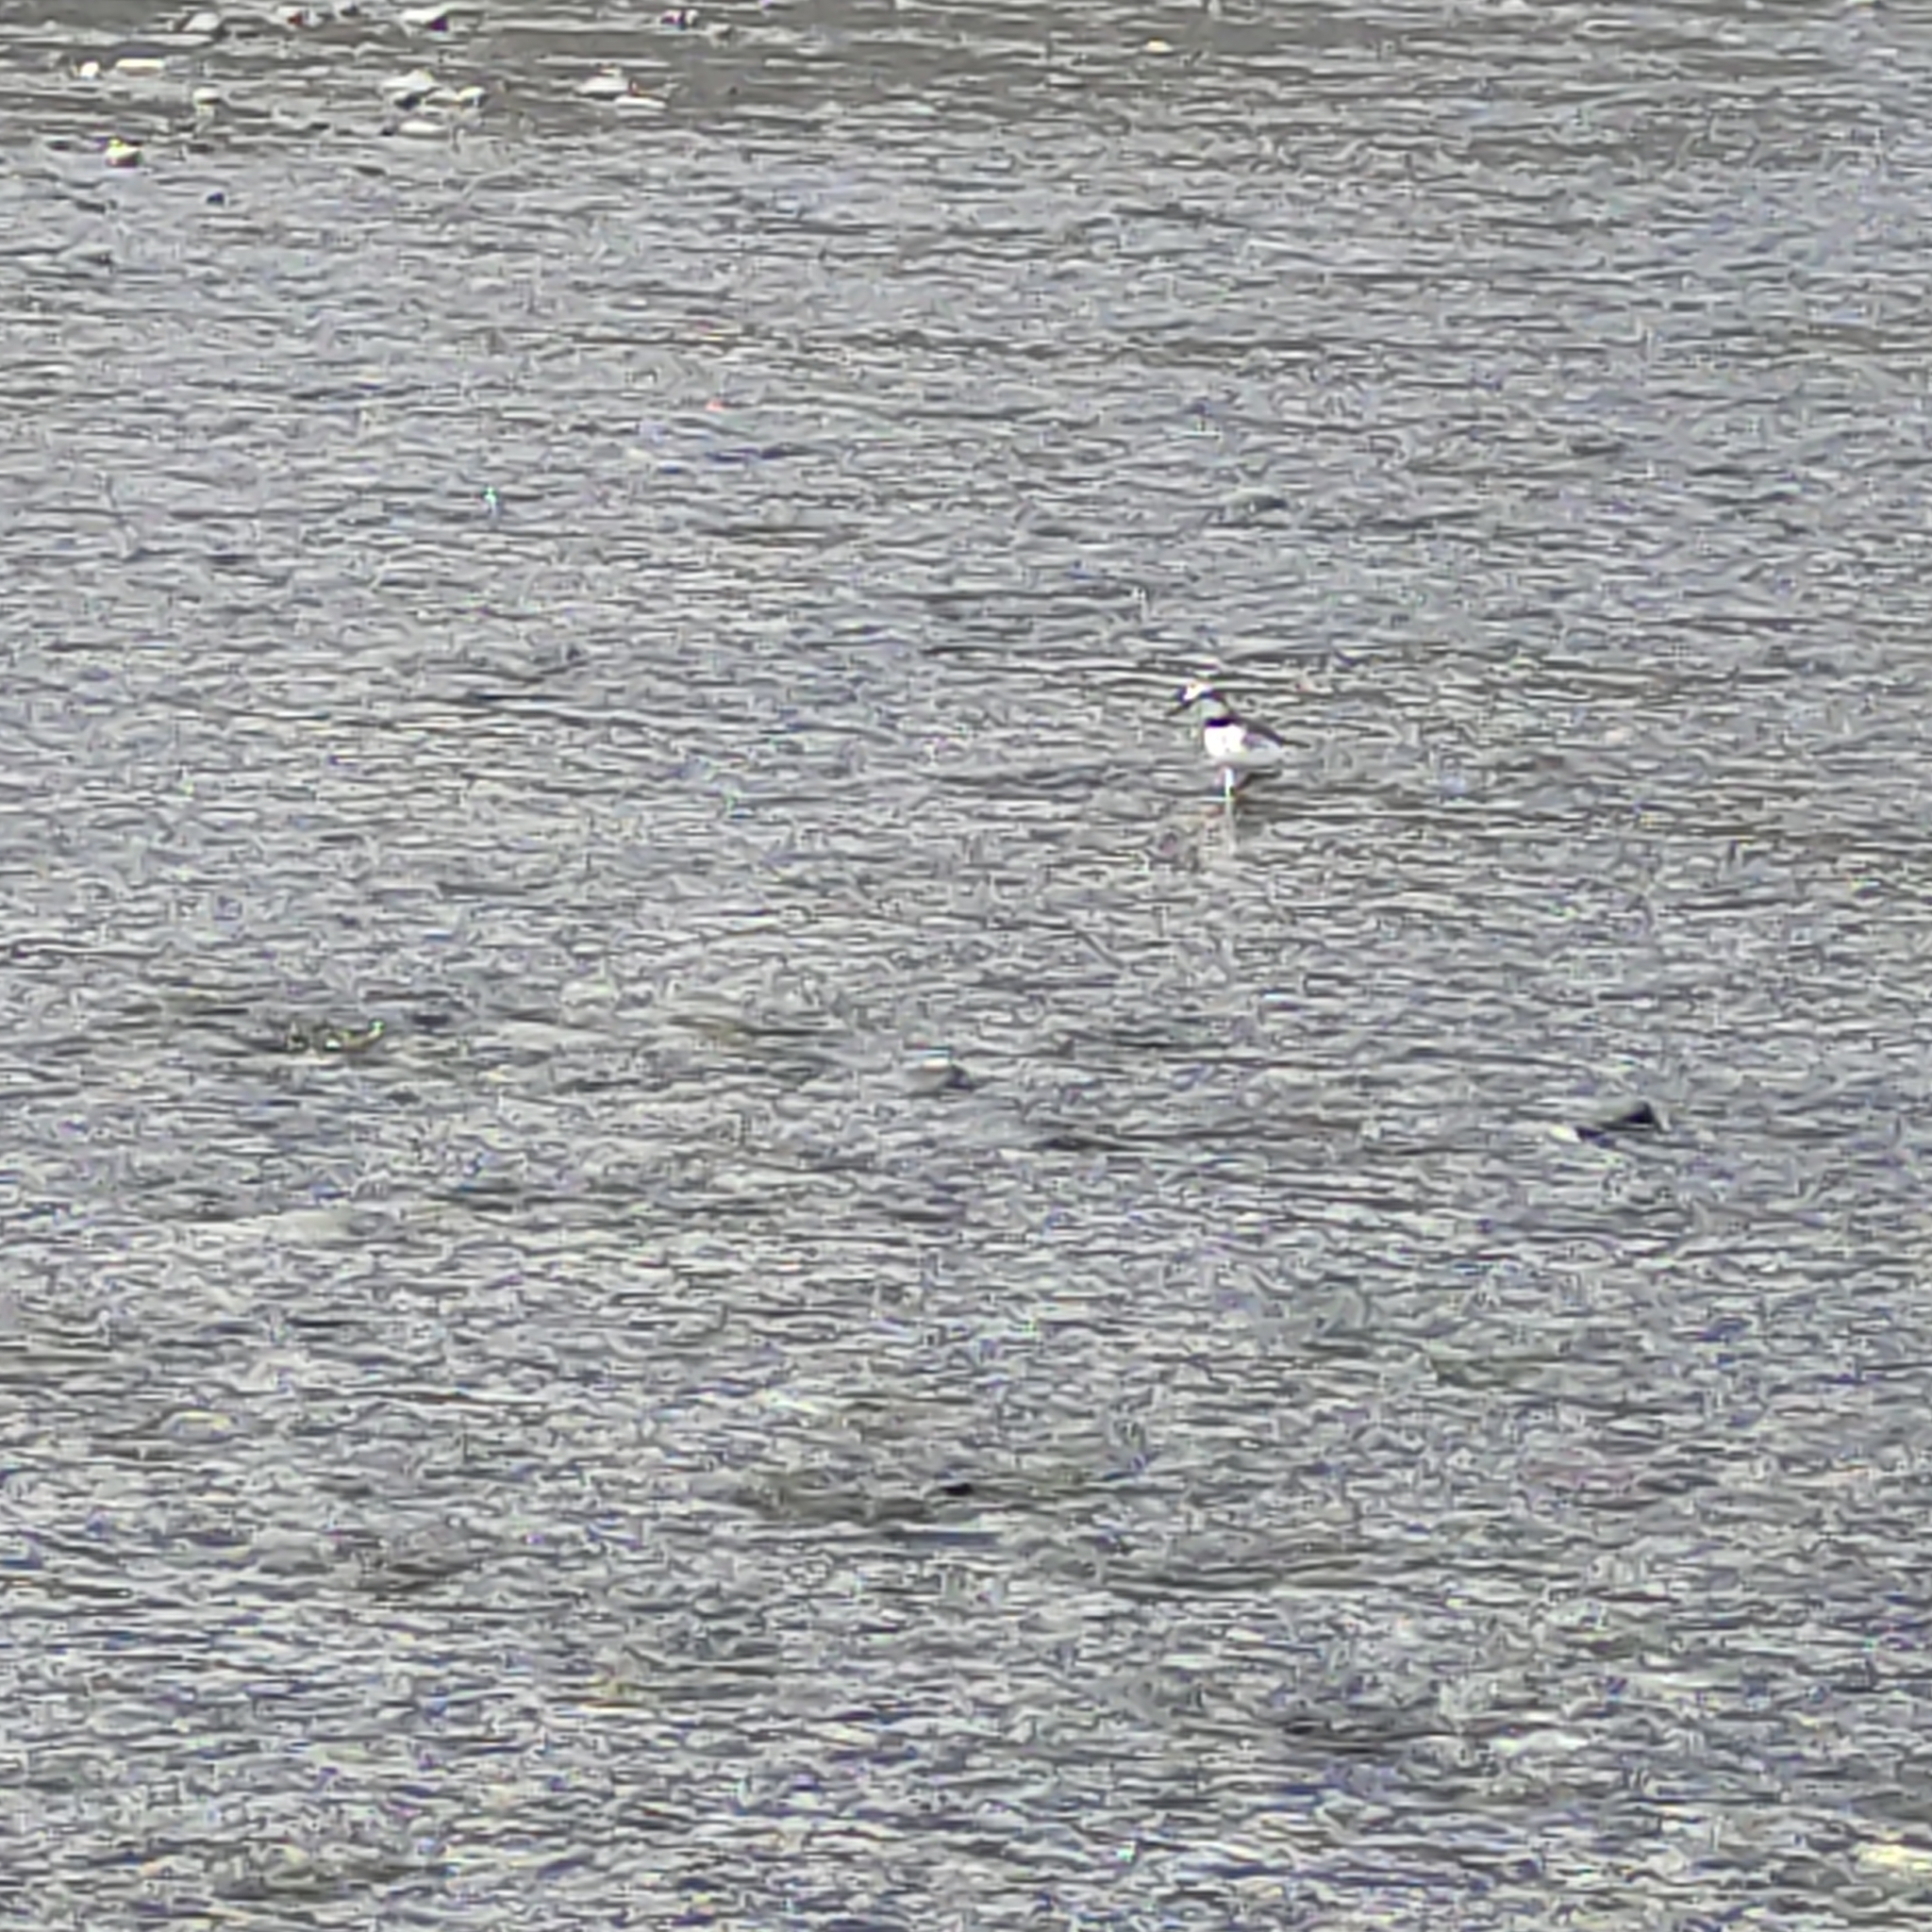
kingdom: Animalia
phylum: Chordata
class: Aves
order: Charadriiformes
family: Charadriidae
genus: Anarhynchus
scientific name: Anarhynchus frontalis
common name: Wrybill
